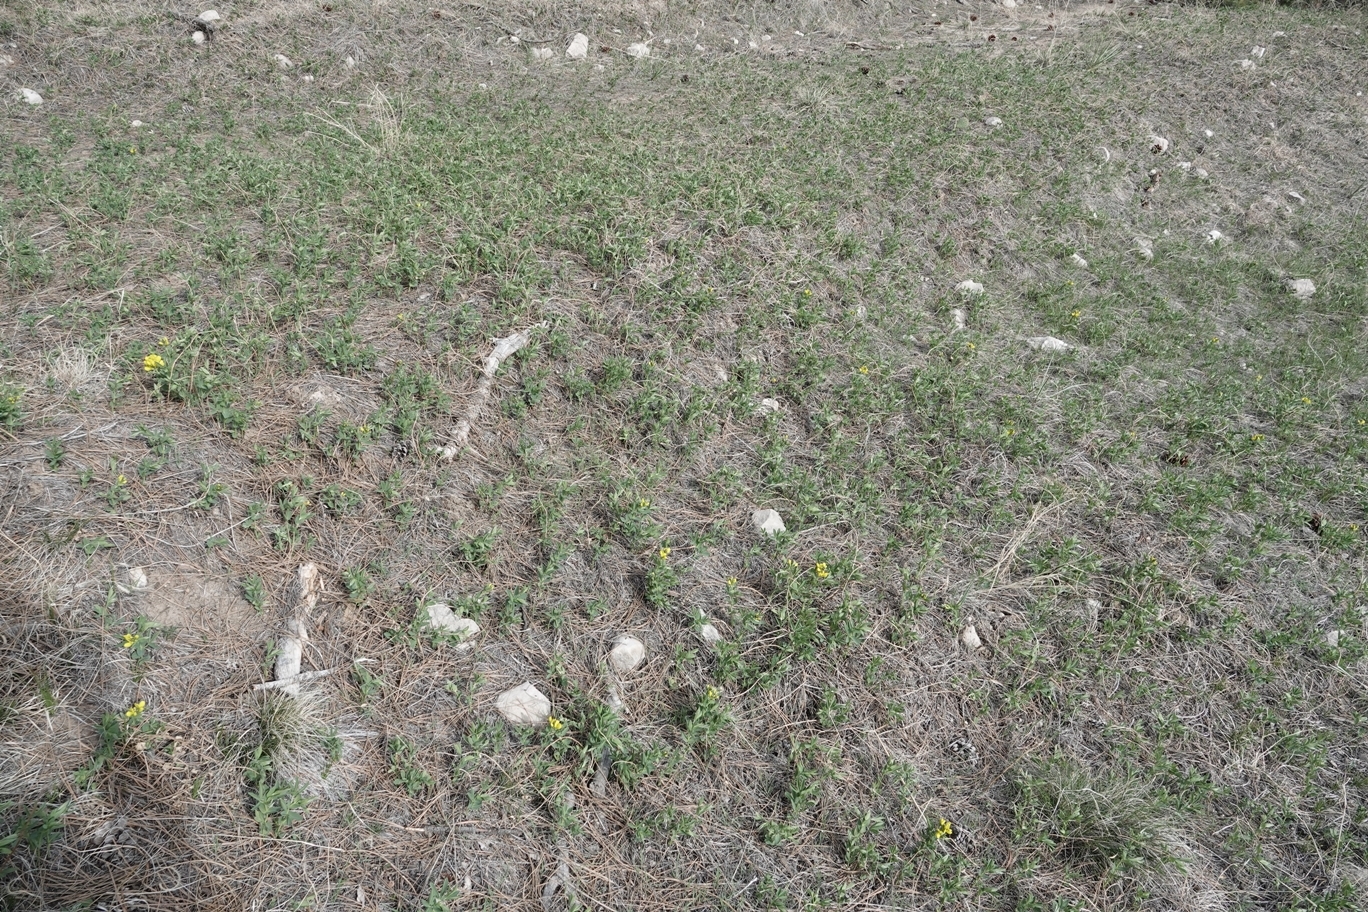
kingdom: Plantae
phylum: Tracheophyta
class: Magnoliopsida
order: Fabales
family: Fabaceae
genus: Thermopsis
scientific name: Thermopsis rhombifolia
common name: Circle-pod-pea
